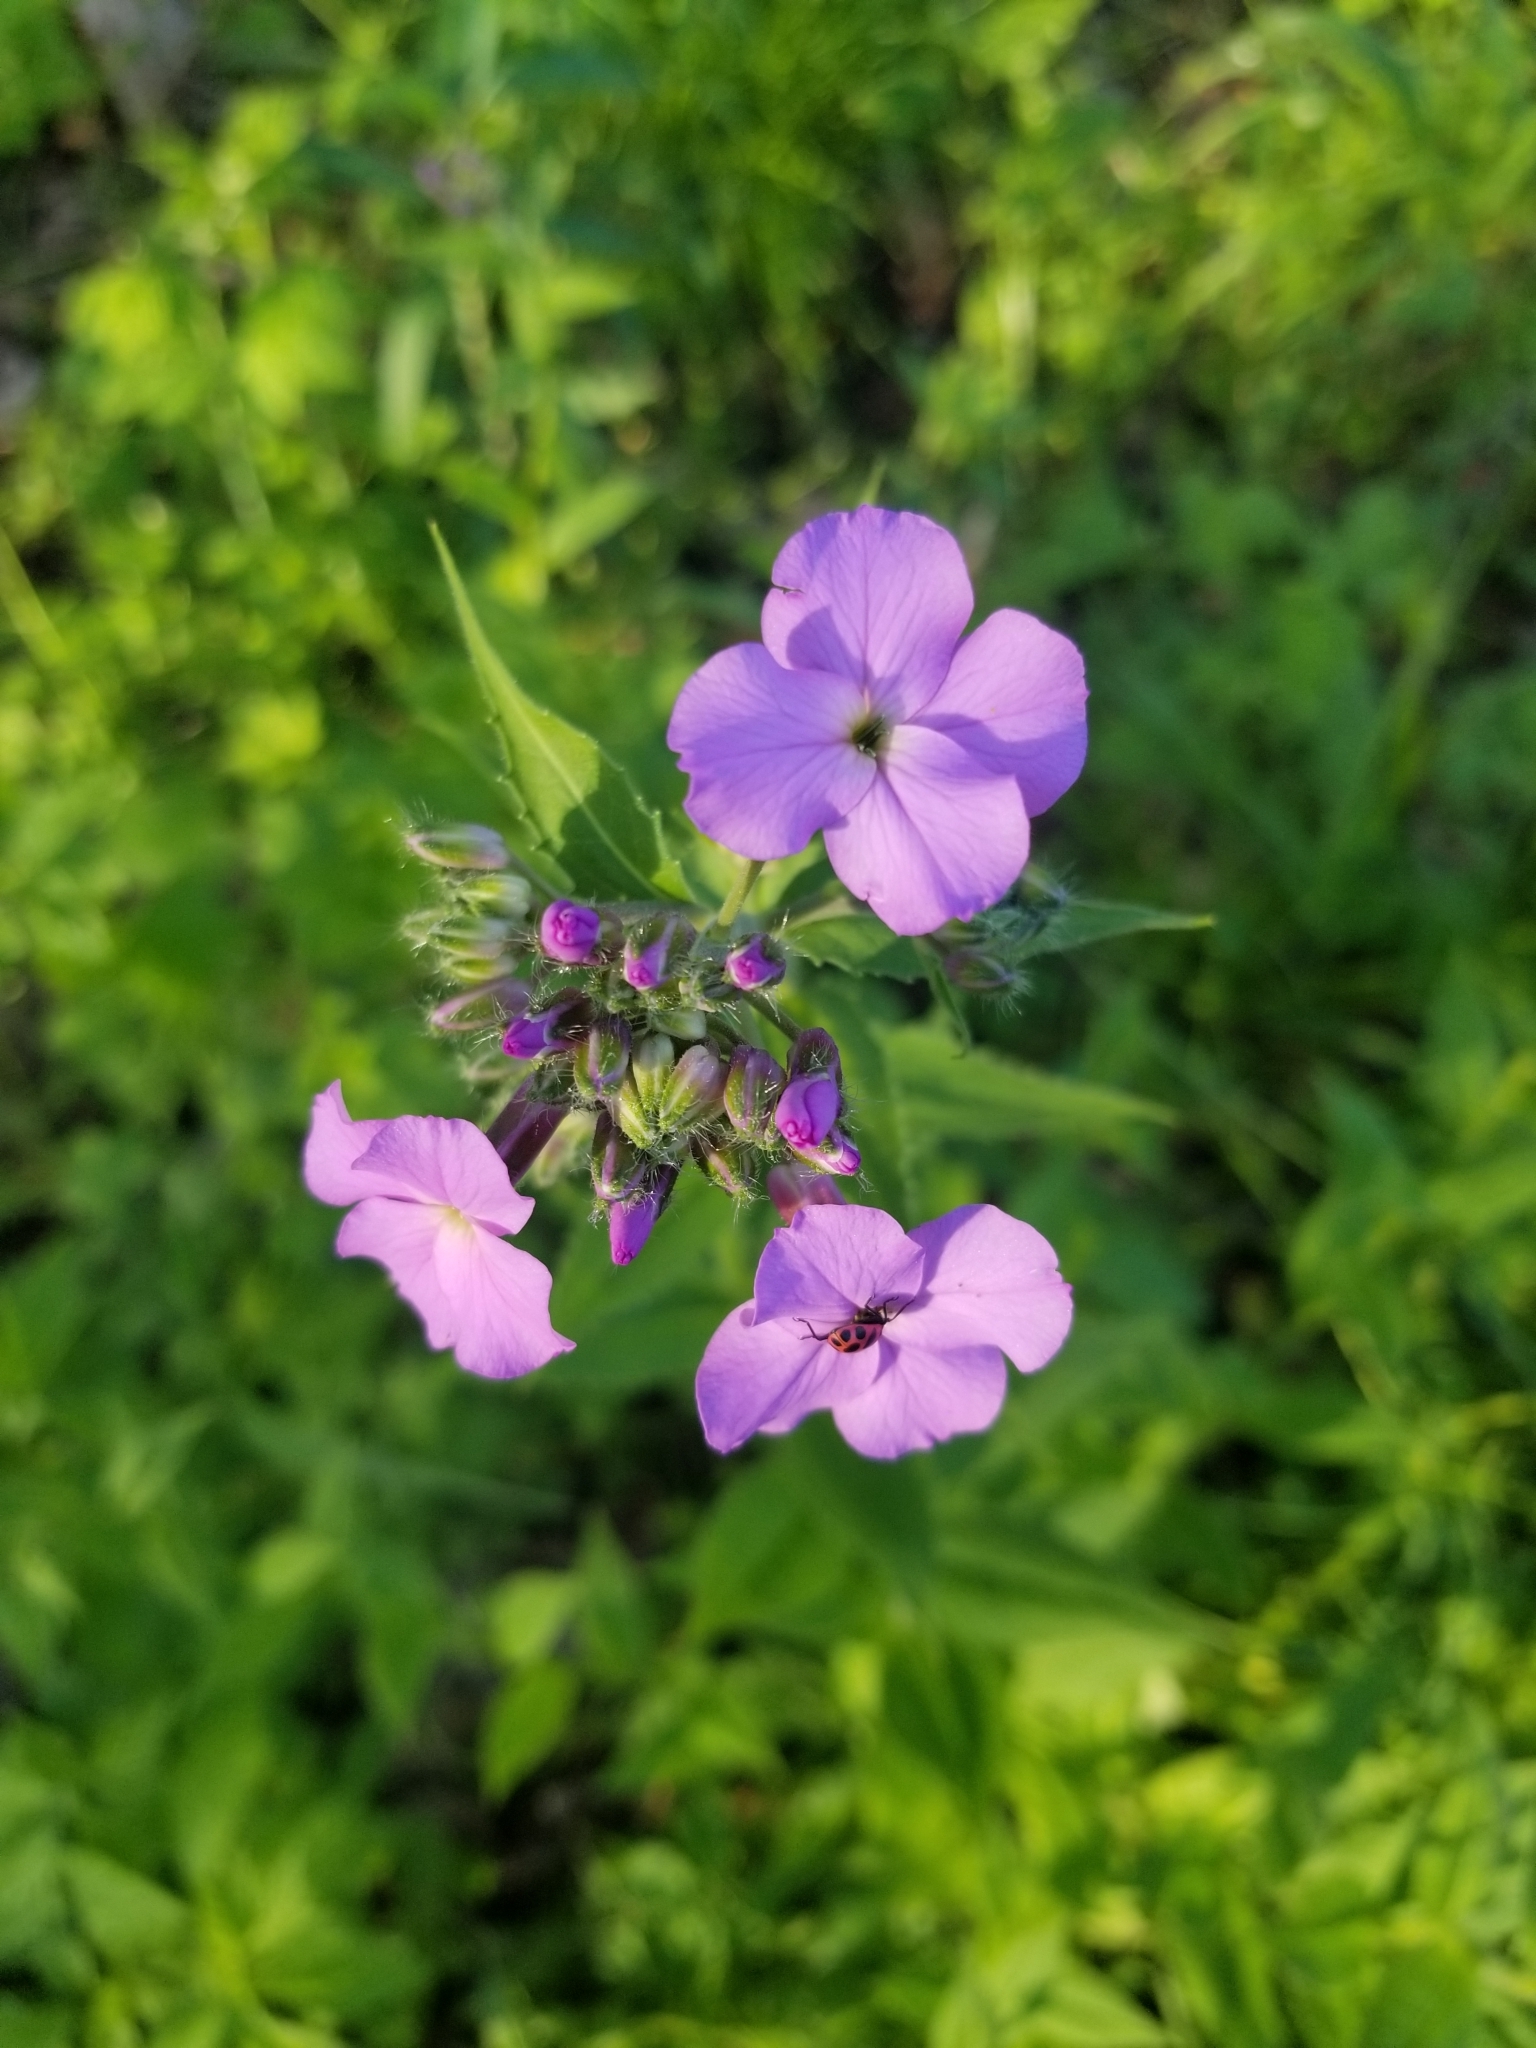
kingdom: Plantae
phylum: Tracheophyta
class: Magnoliopsida
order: Brassicales
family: Brassicaceae
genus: Hesperis
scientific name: Hesperis matronalis
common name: Dame's-violet
